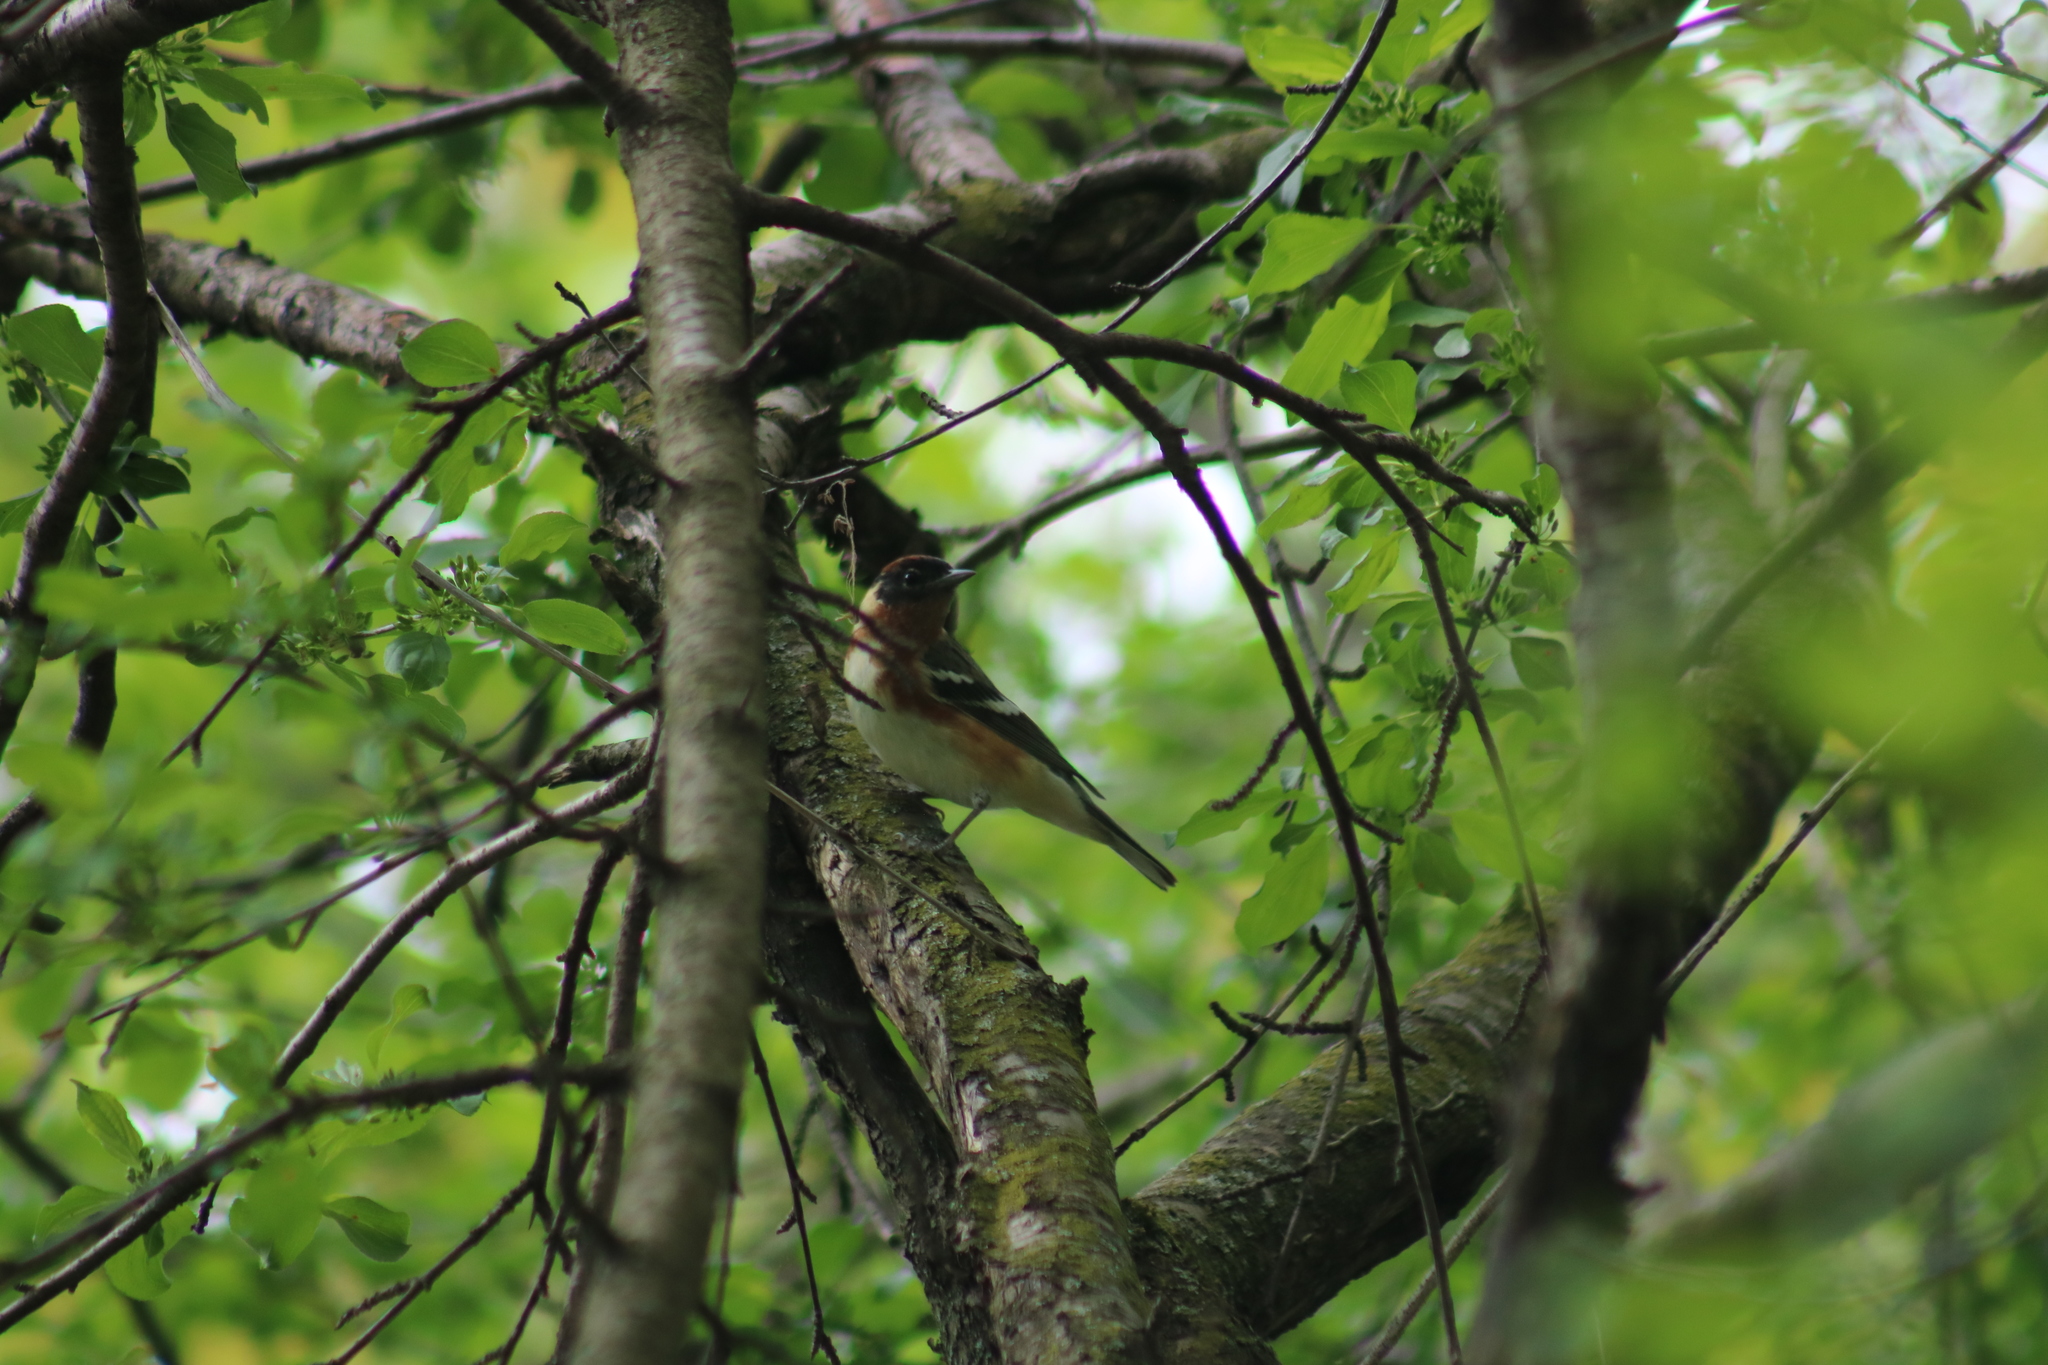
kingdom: Animalia
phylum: Chordata
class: Aves
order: Passeriformes
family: Parulidae
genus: Setophaga
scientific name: Setophaga castanea
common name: Bay-breasted warbler
